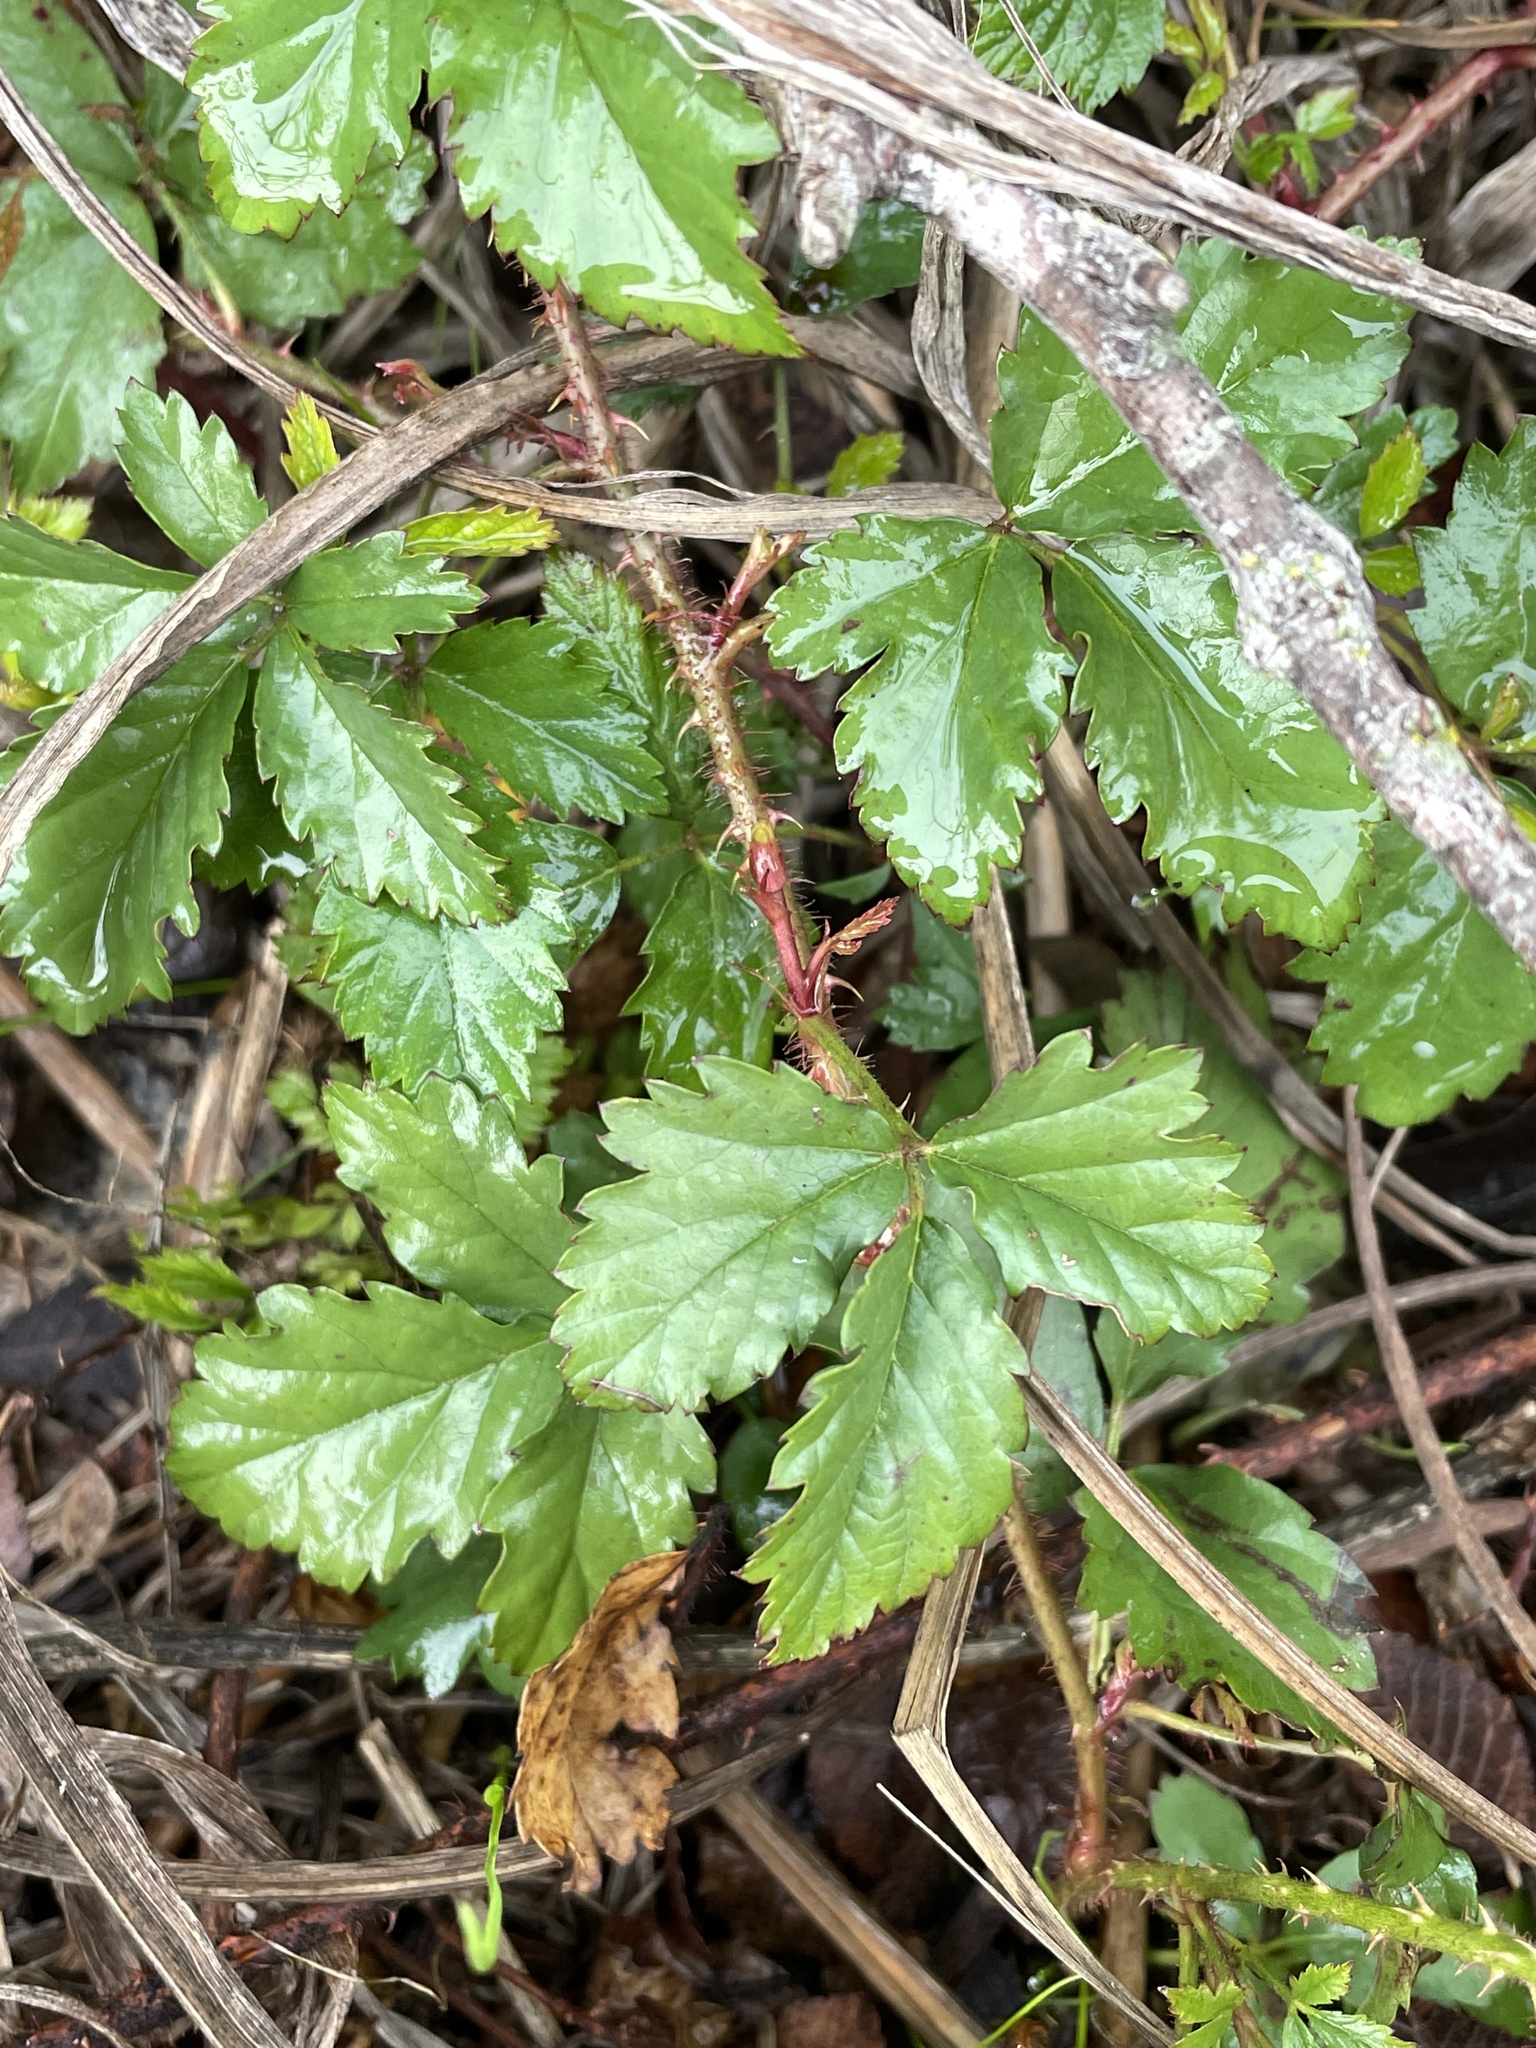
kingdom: Plantae
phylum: Tracheophyta
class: Magnoliopsida
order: Rosales
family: Rosaceae
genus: Rubus
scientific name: Rubus trivialis
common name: Southern dewberry
